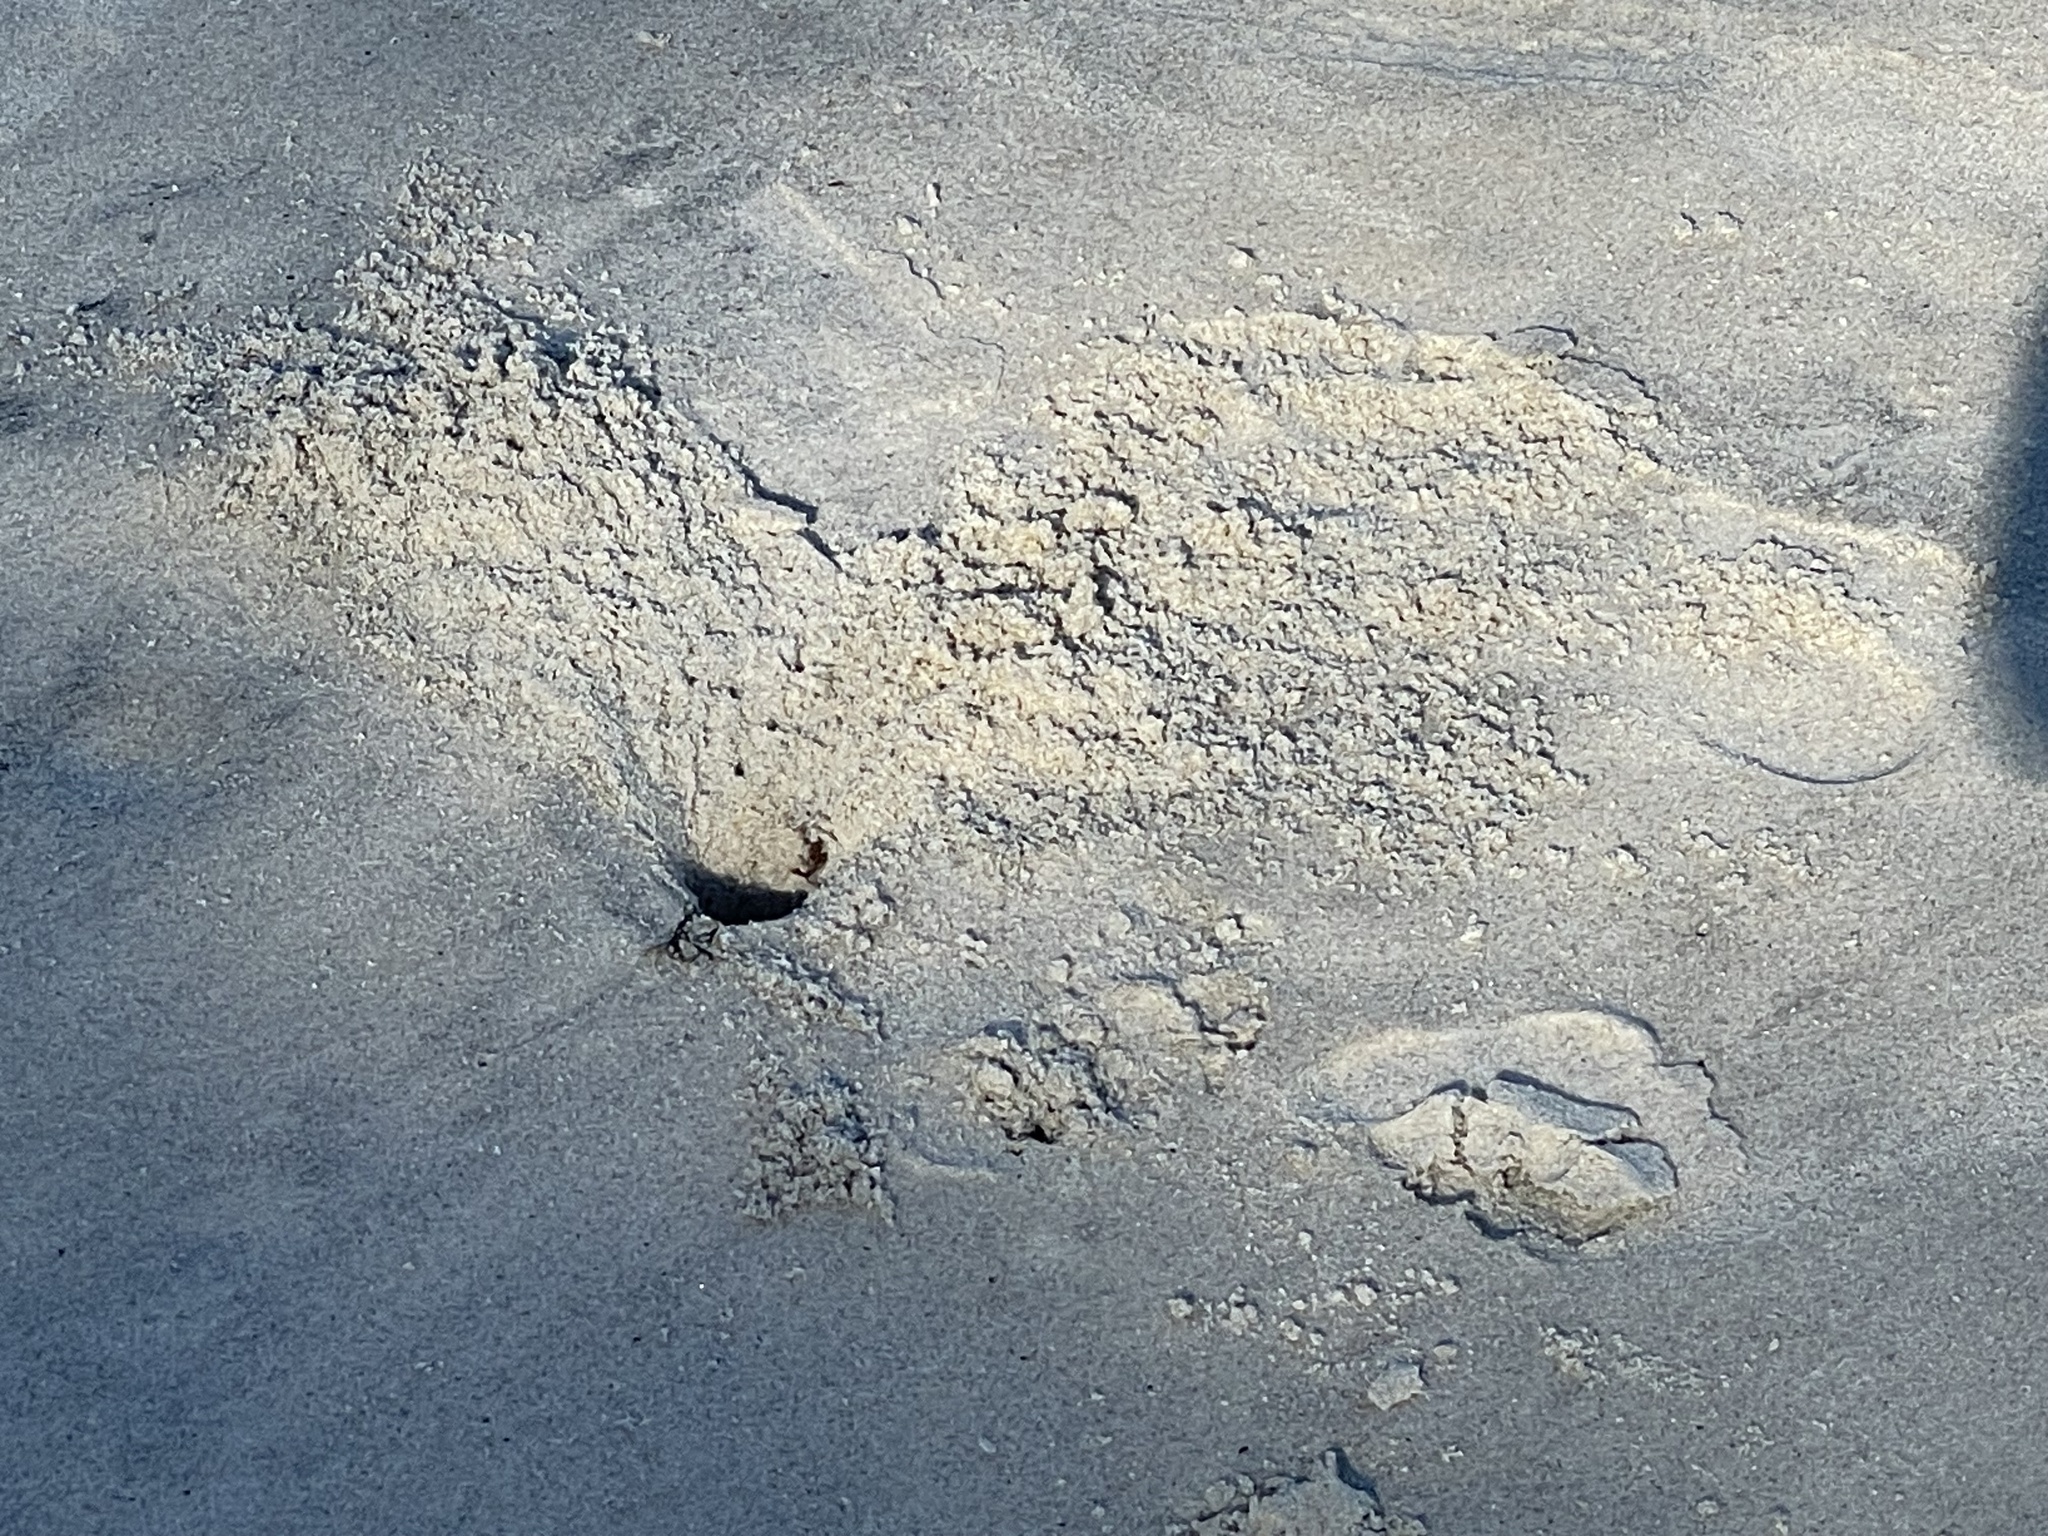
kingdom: Animalia
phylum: Arthropoda
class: Malacostraca
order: Decapoda
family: Ocypodidae
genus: Ocypode
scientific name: Ocypode quadrata
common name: Ghost crab
